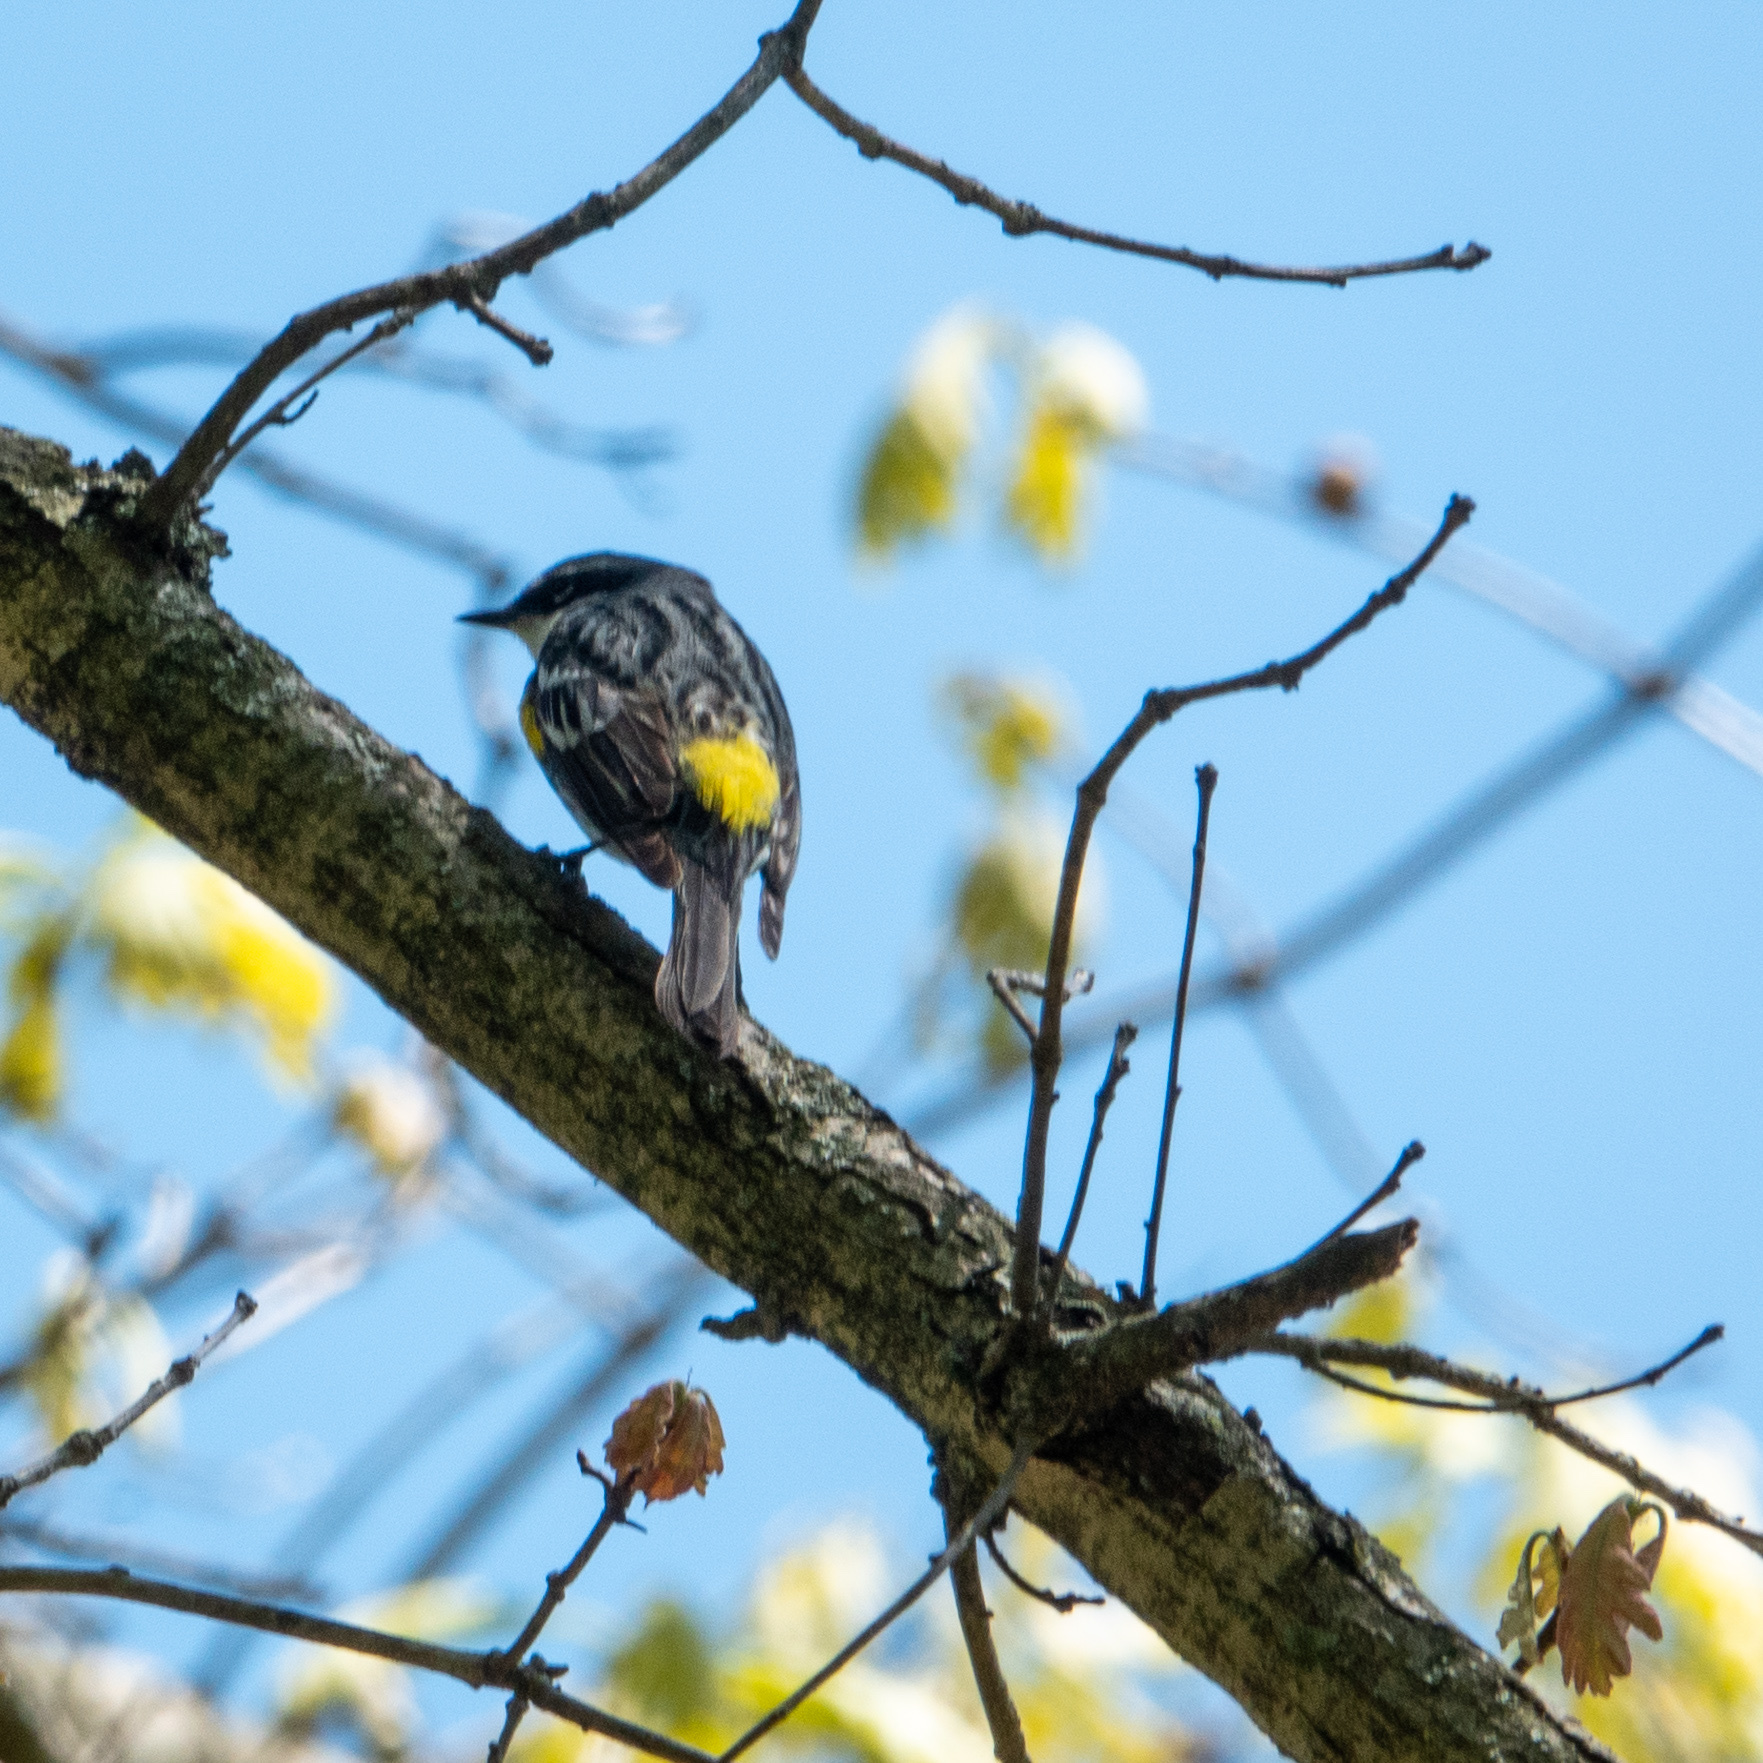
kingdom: Animalia
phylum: Chordata
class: Aves
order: Passeriformes
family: Parulidae
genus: Setophaga
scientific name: Setophaga coronata
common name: Myrtle warbler
